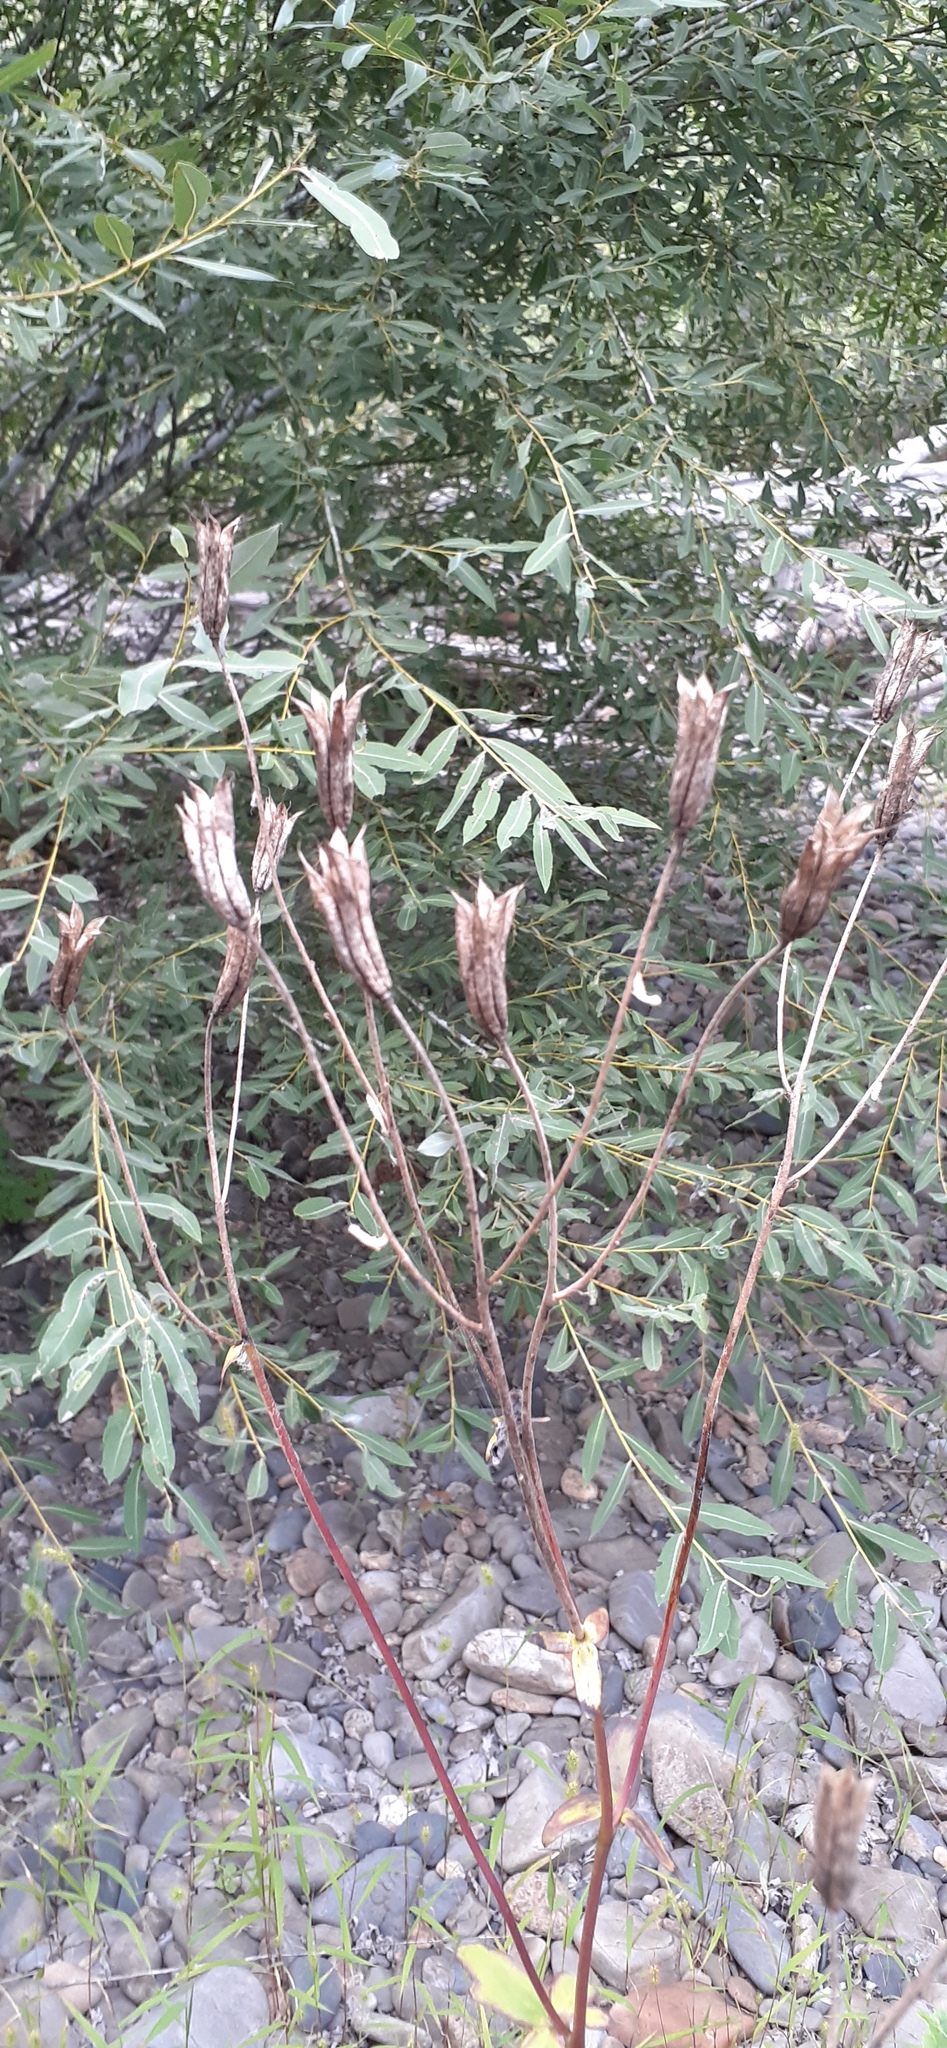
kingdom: Plantae
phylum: Tracheophyta
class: Magnoliopsida
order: Ranunculales
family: Ranunculaceae
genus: Aquilegia
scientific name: Aquilegia oxysepala
